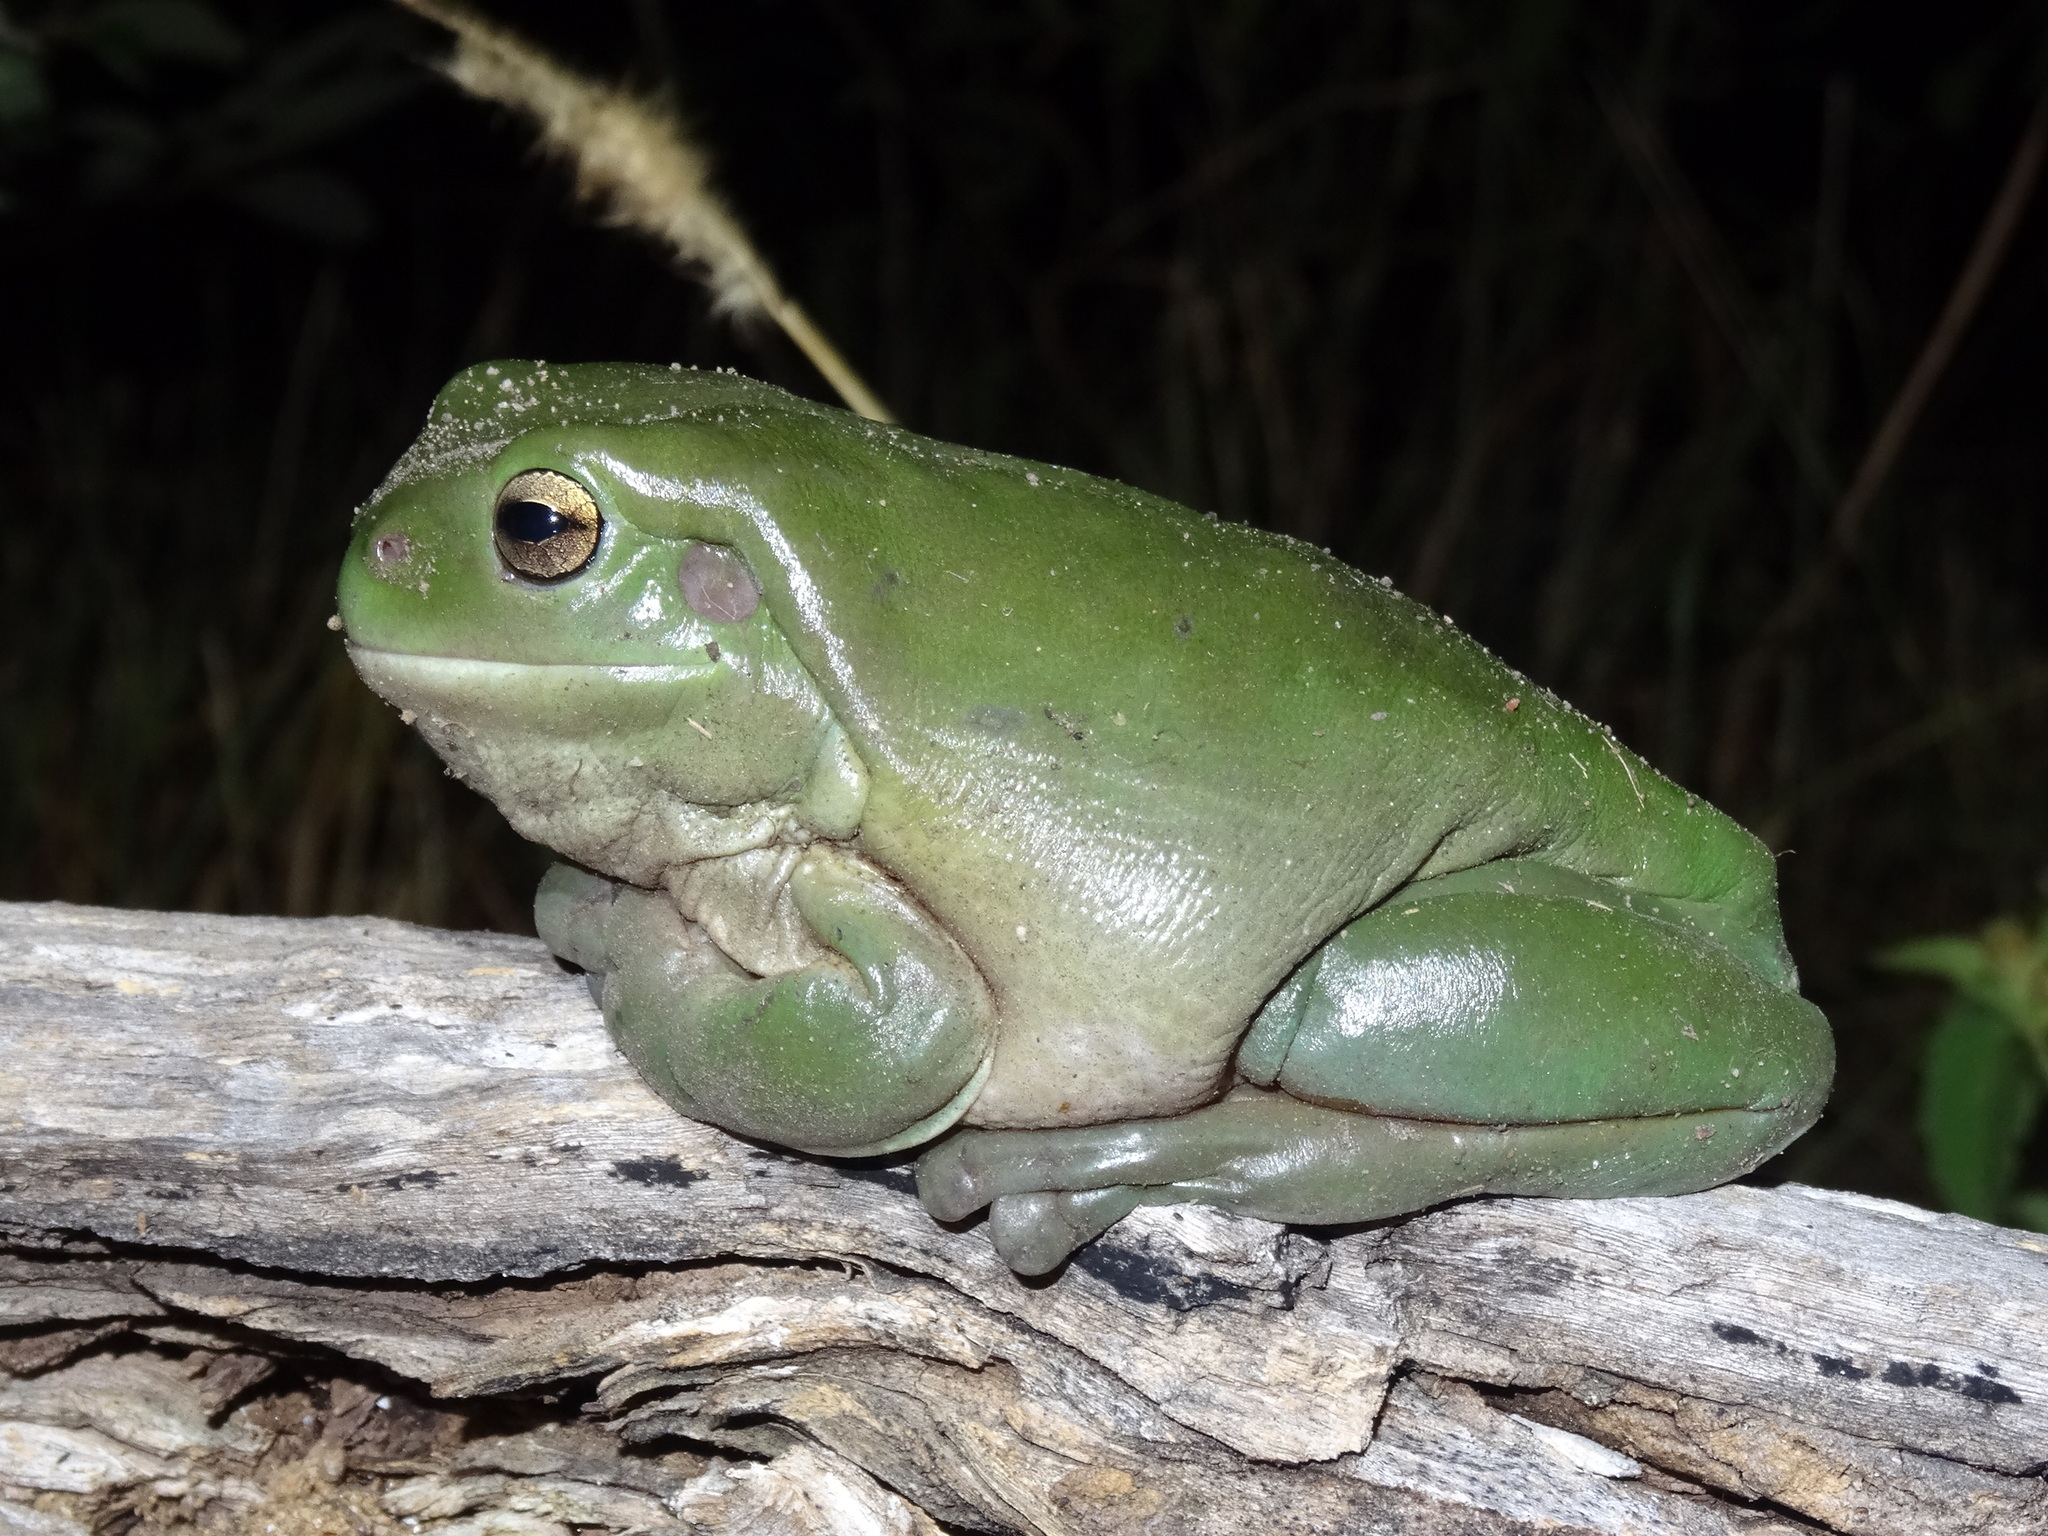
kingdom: Animalia
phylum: Chordata
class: Amphibia
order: Anura
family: Pelodryadidae
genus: Ranoidea
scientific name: Ranoidea caerulea
